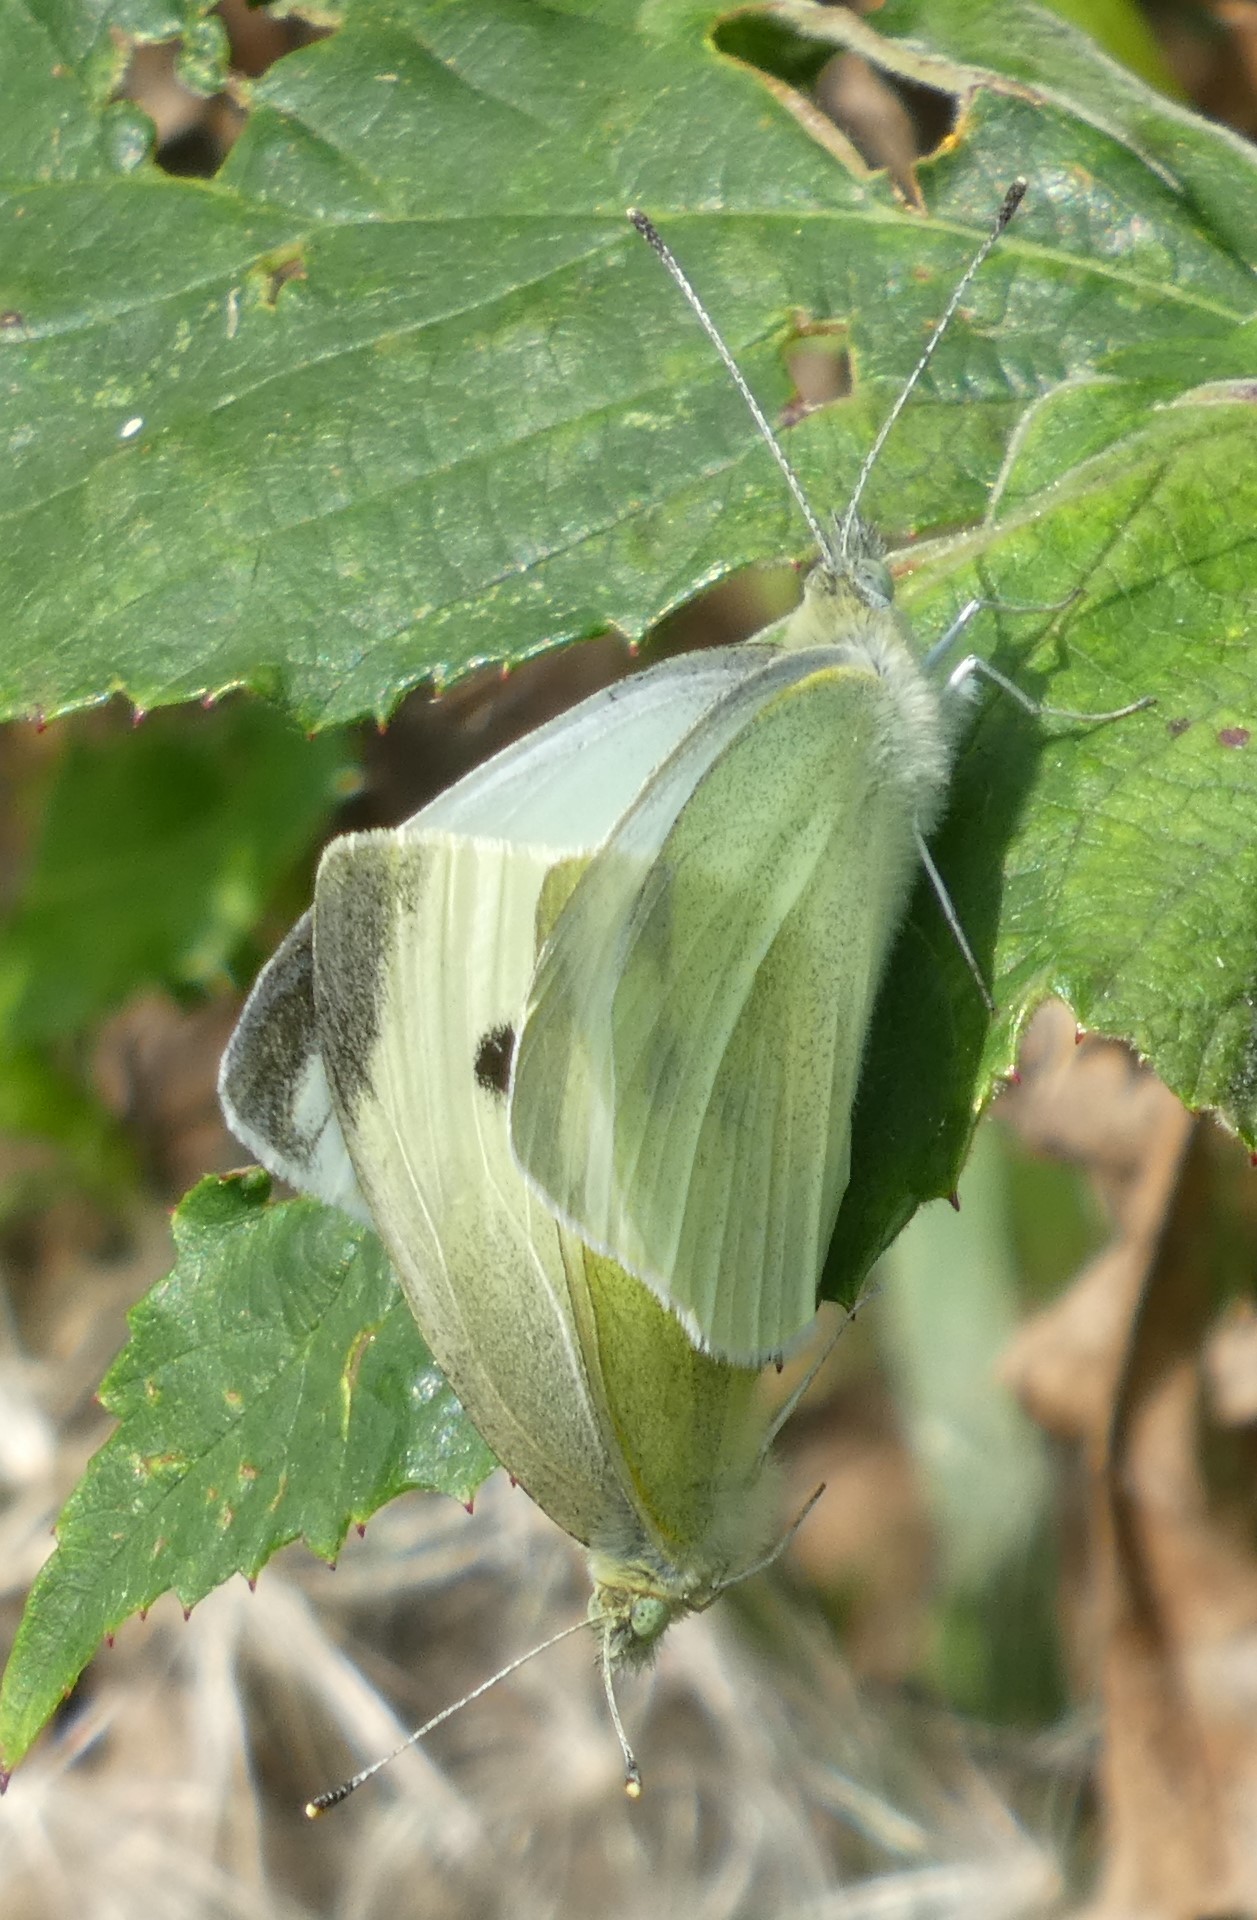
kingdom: Animalia
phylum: Arthropoda
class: Insecta
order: Lepidoptera
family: Pieridae
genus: Pieris
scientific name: Pieris rapae
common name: Small white
